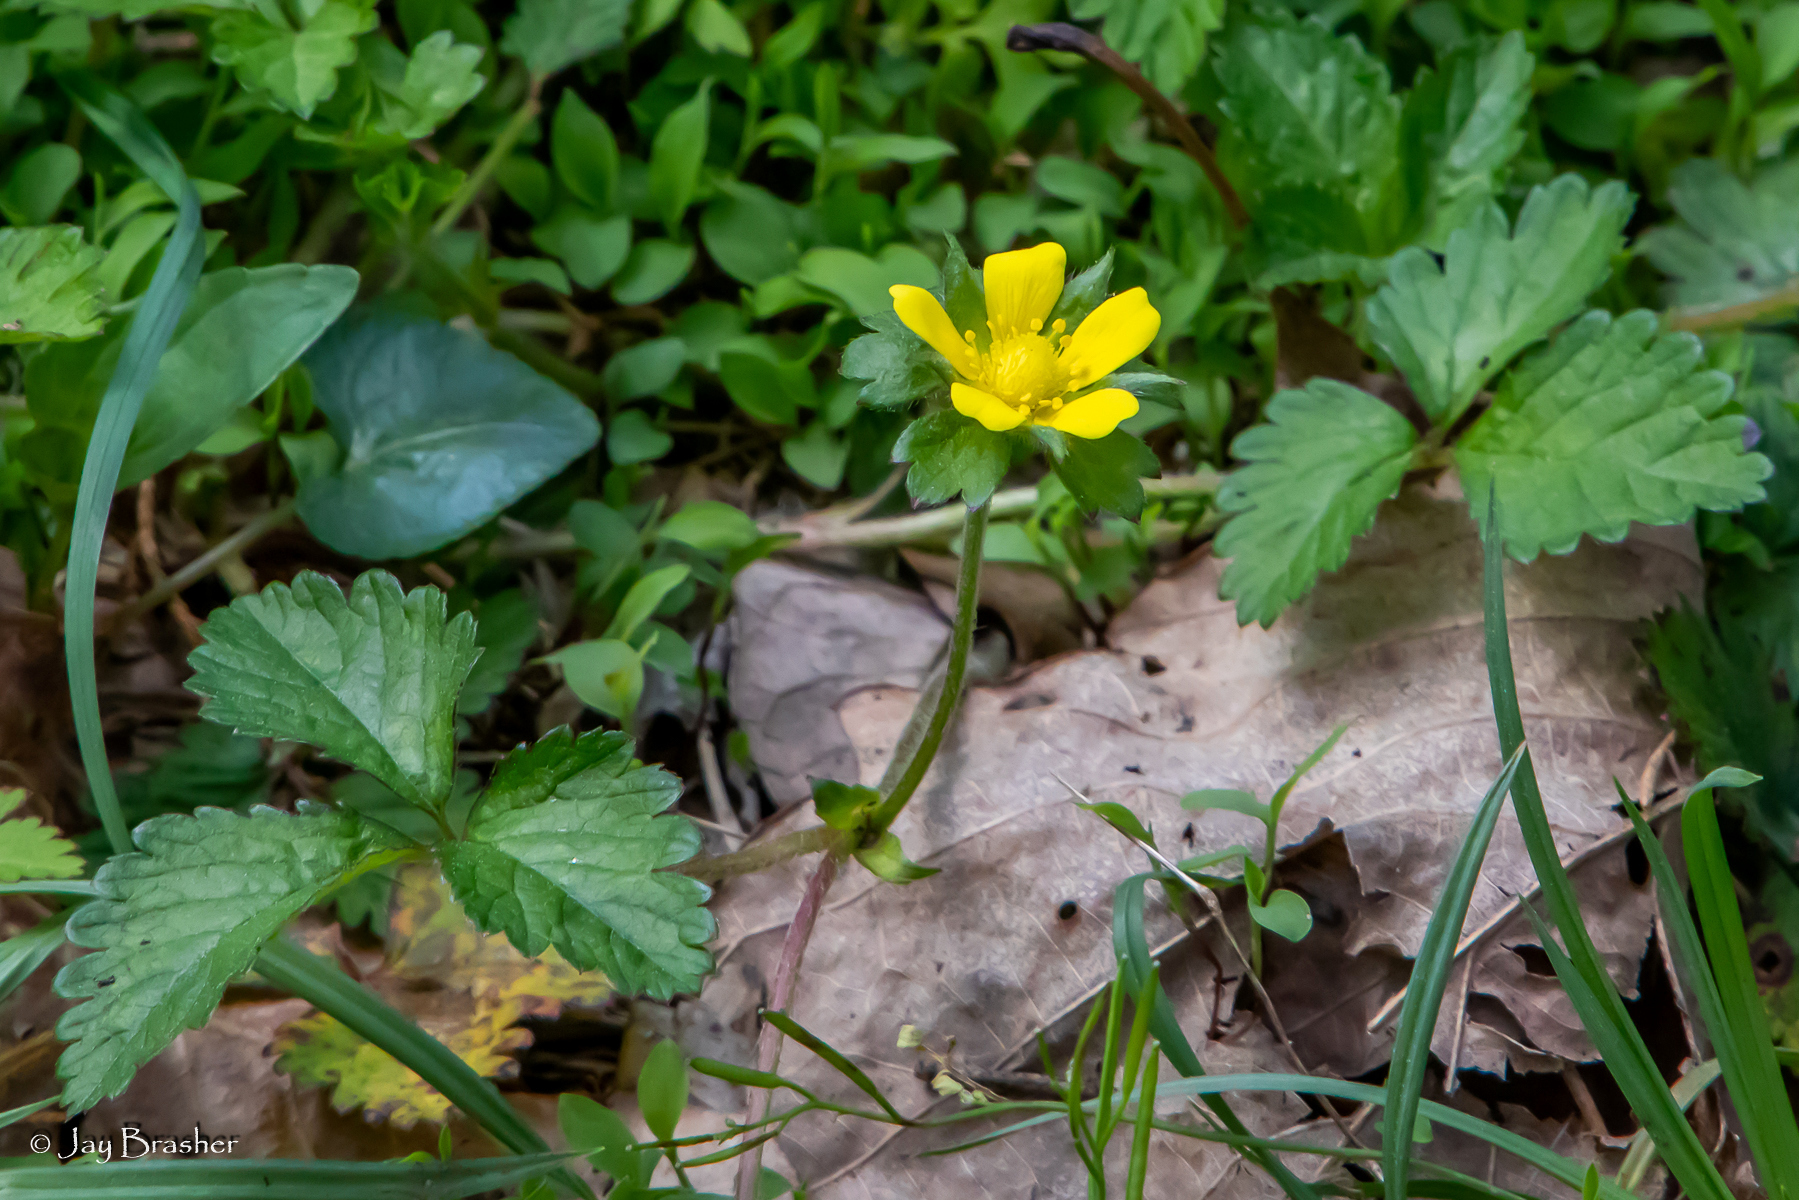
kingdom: Plantae
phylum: Tracheophyta
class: Magnoliopsida
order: Rosales
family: Rosaceae
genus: Potentilla
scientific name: Potentilla indica
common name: Yellow-flowered strawberry
